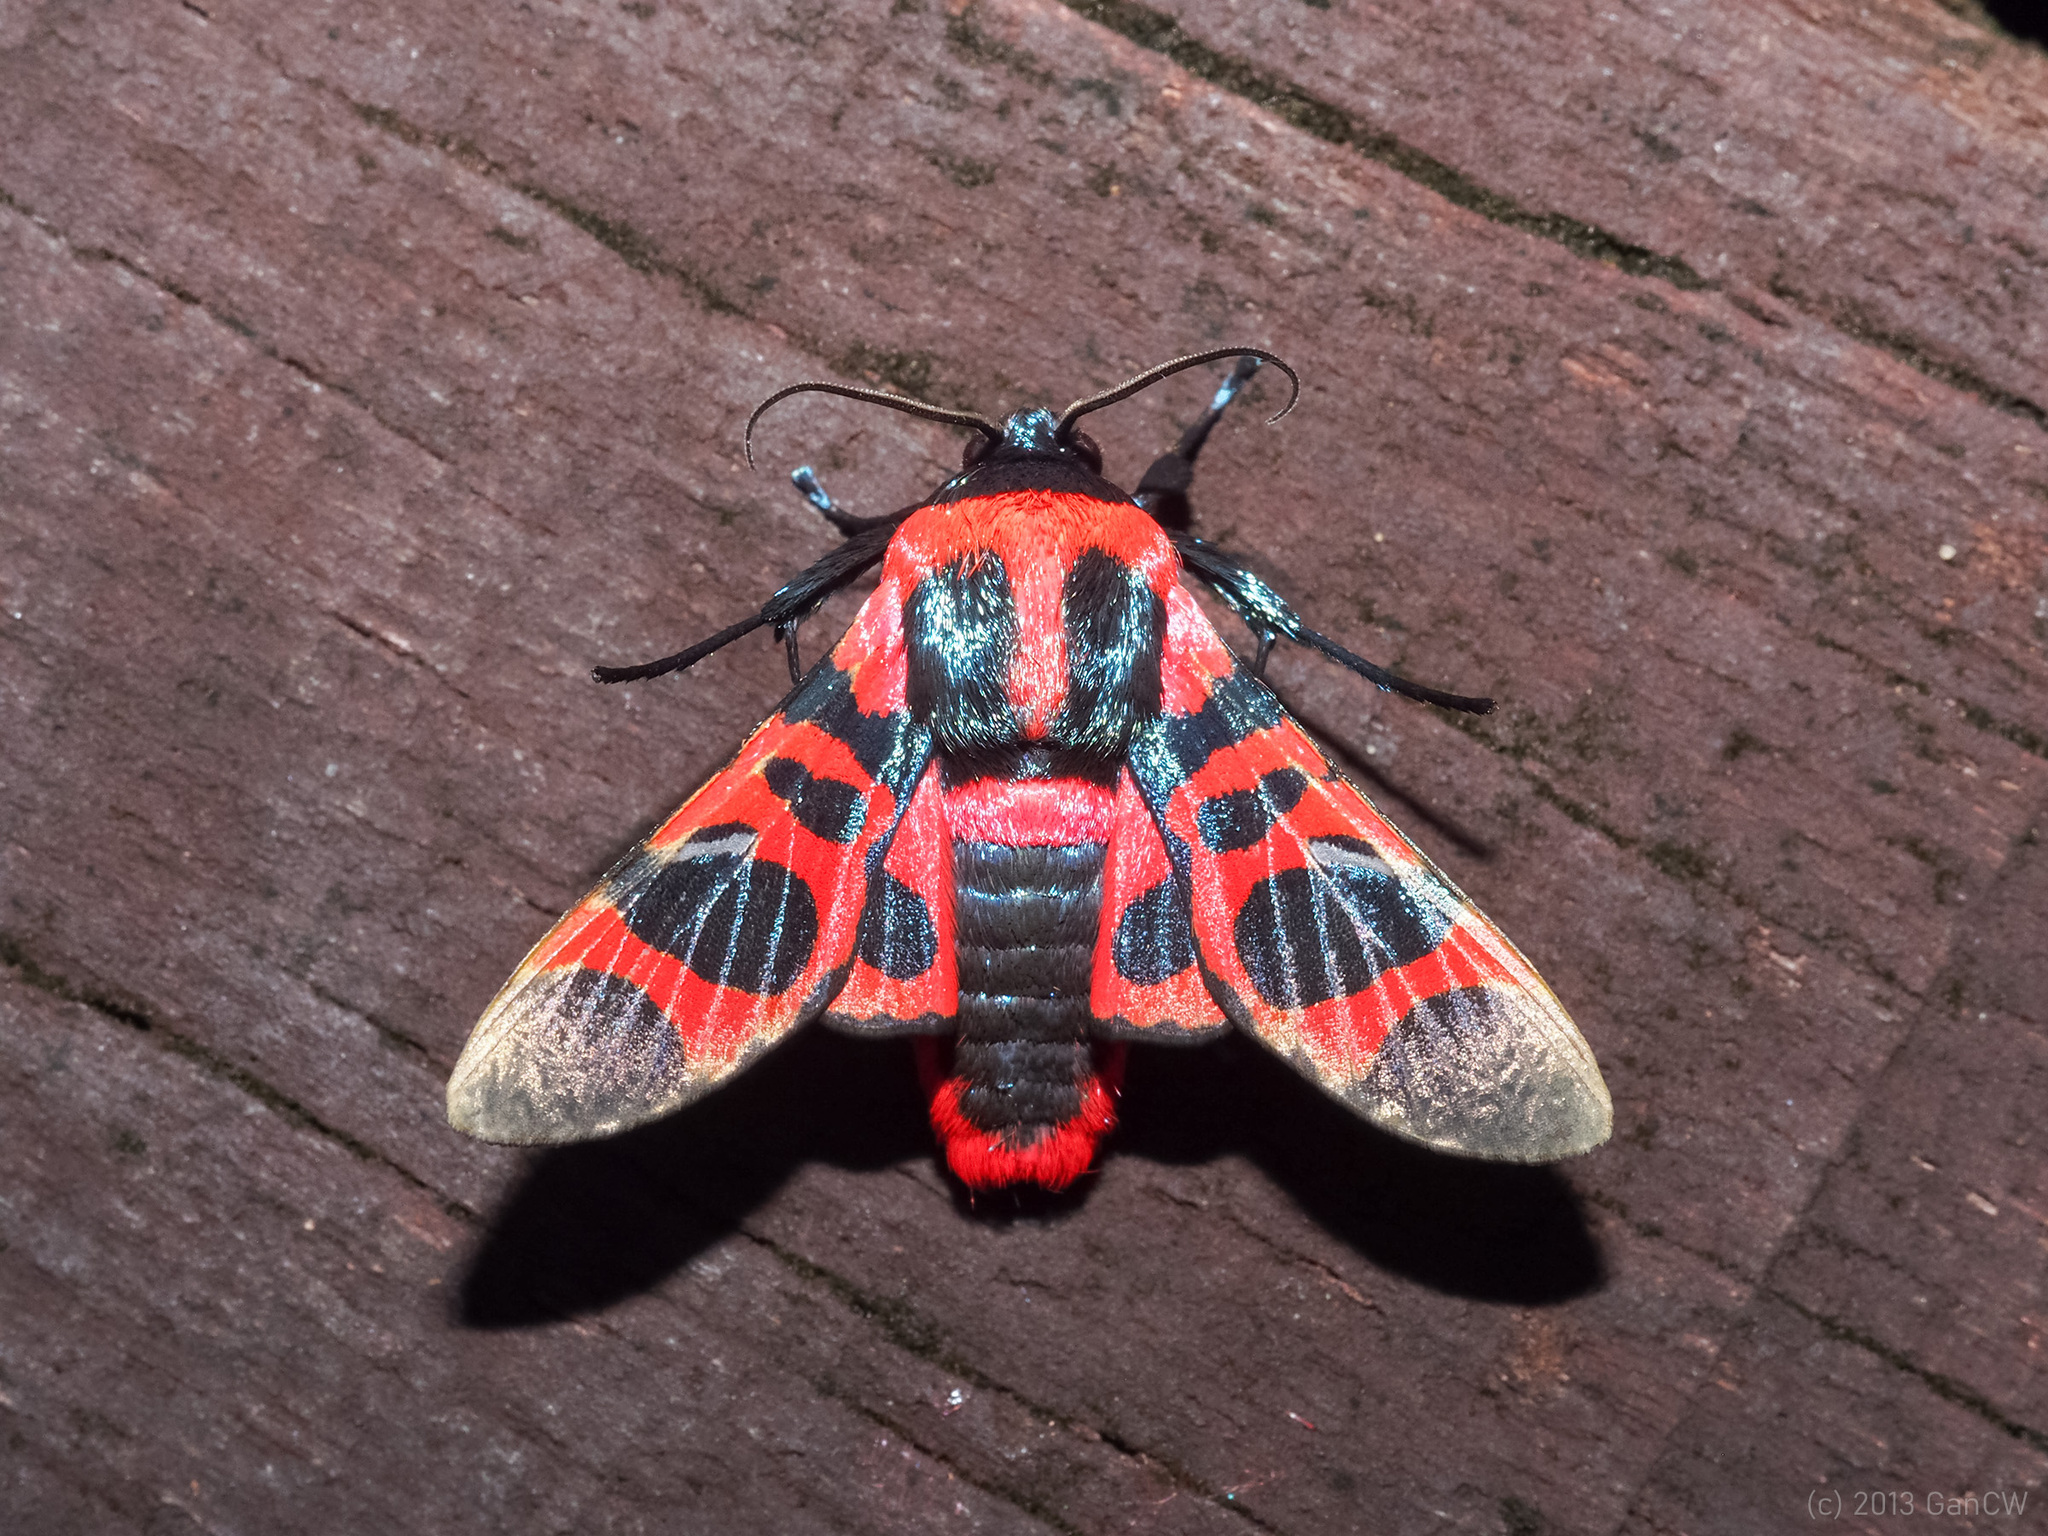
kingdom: Animalia
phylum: Arthropoda
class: Insecta
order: Lepidoptera
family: Thyrididae
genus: Glanycus
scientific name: Glanycus
